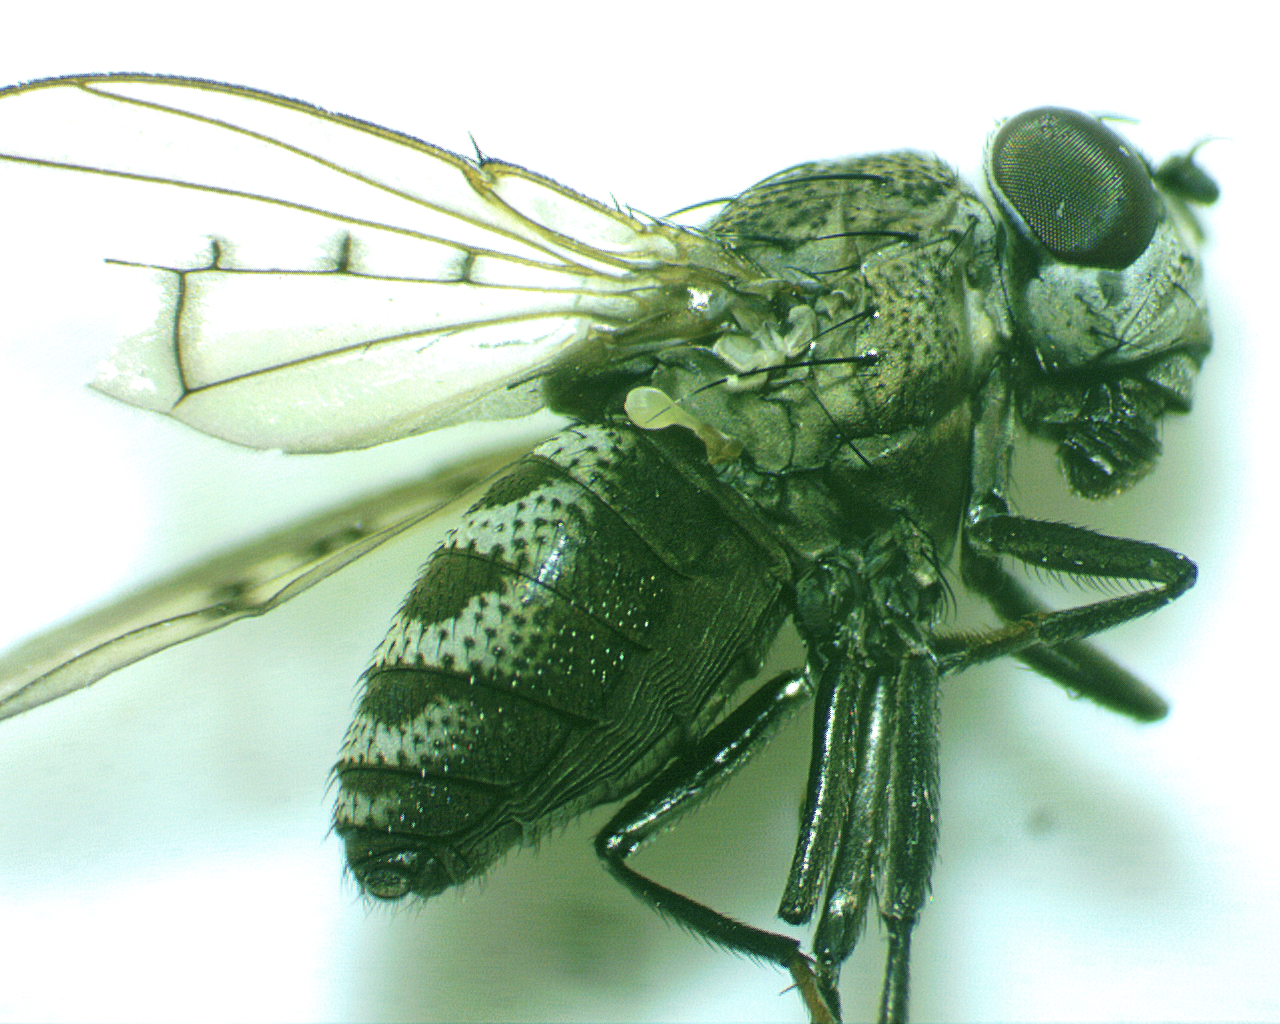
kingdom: Animalia
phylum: Arthropoda
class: Insecta
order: Diptera
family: Ephydridae
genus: Paralimna
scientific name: Paralimna punctipennis
